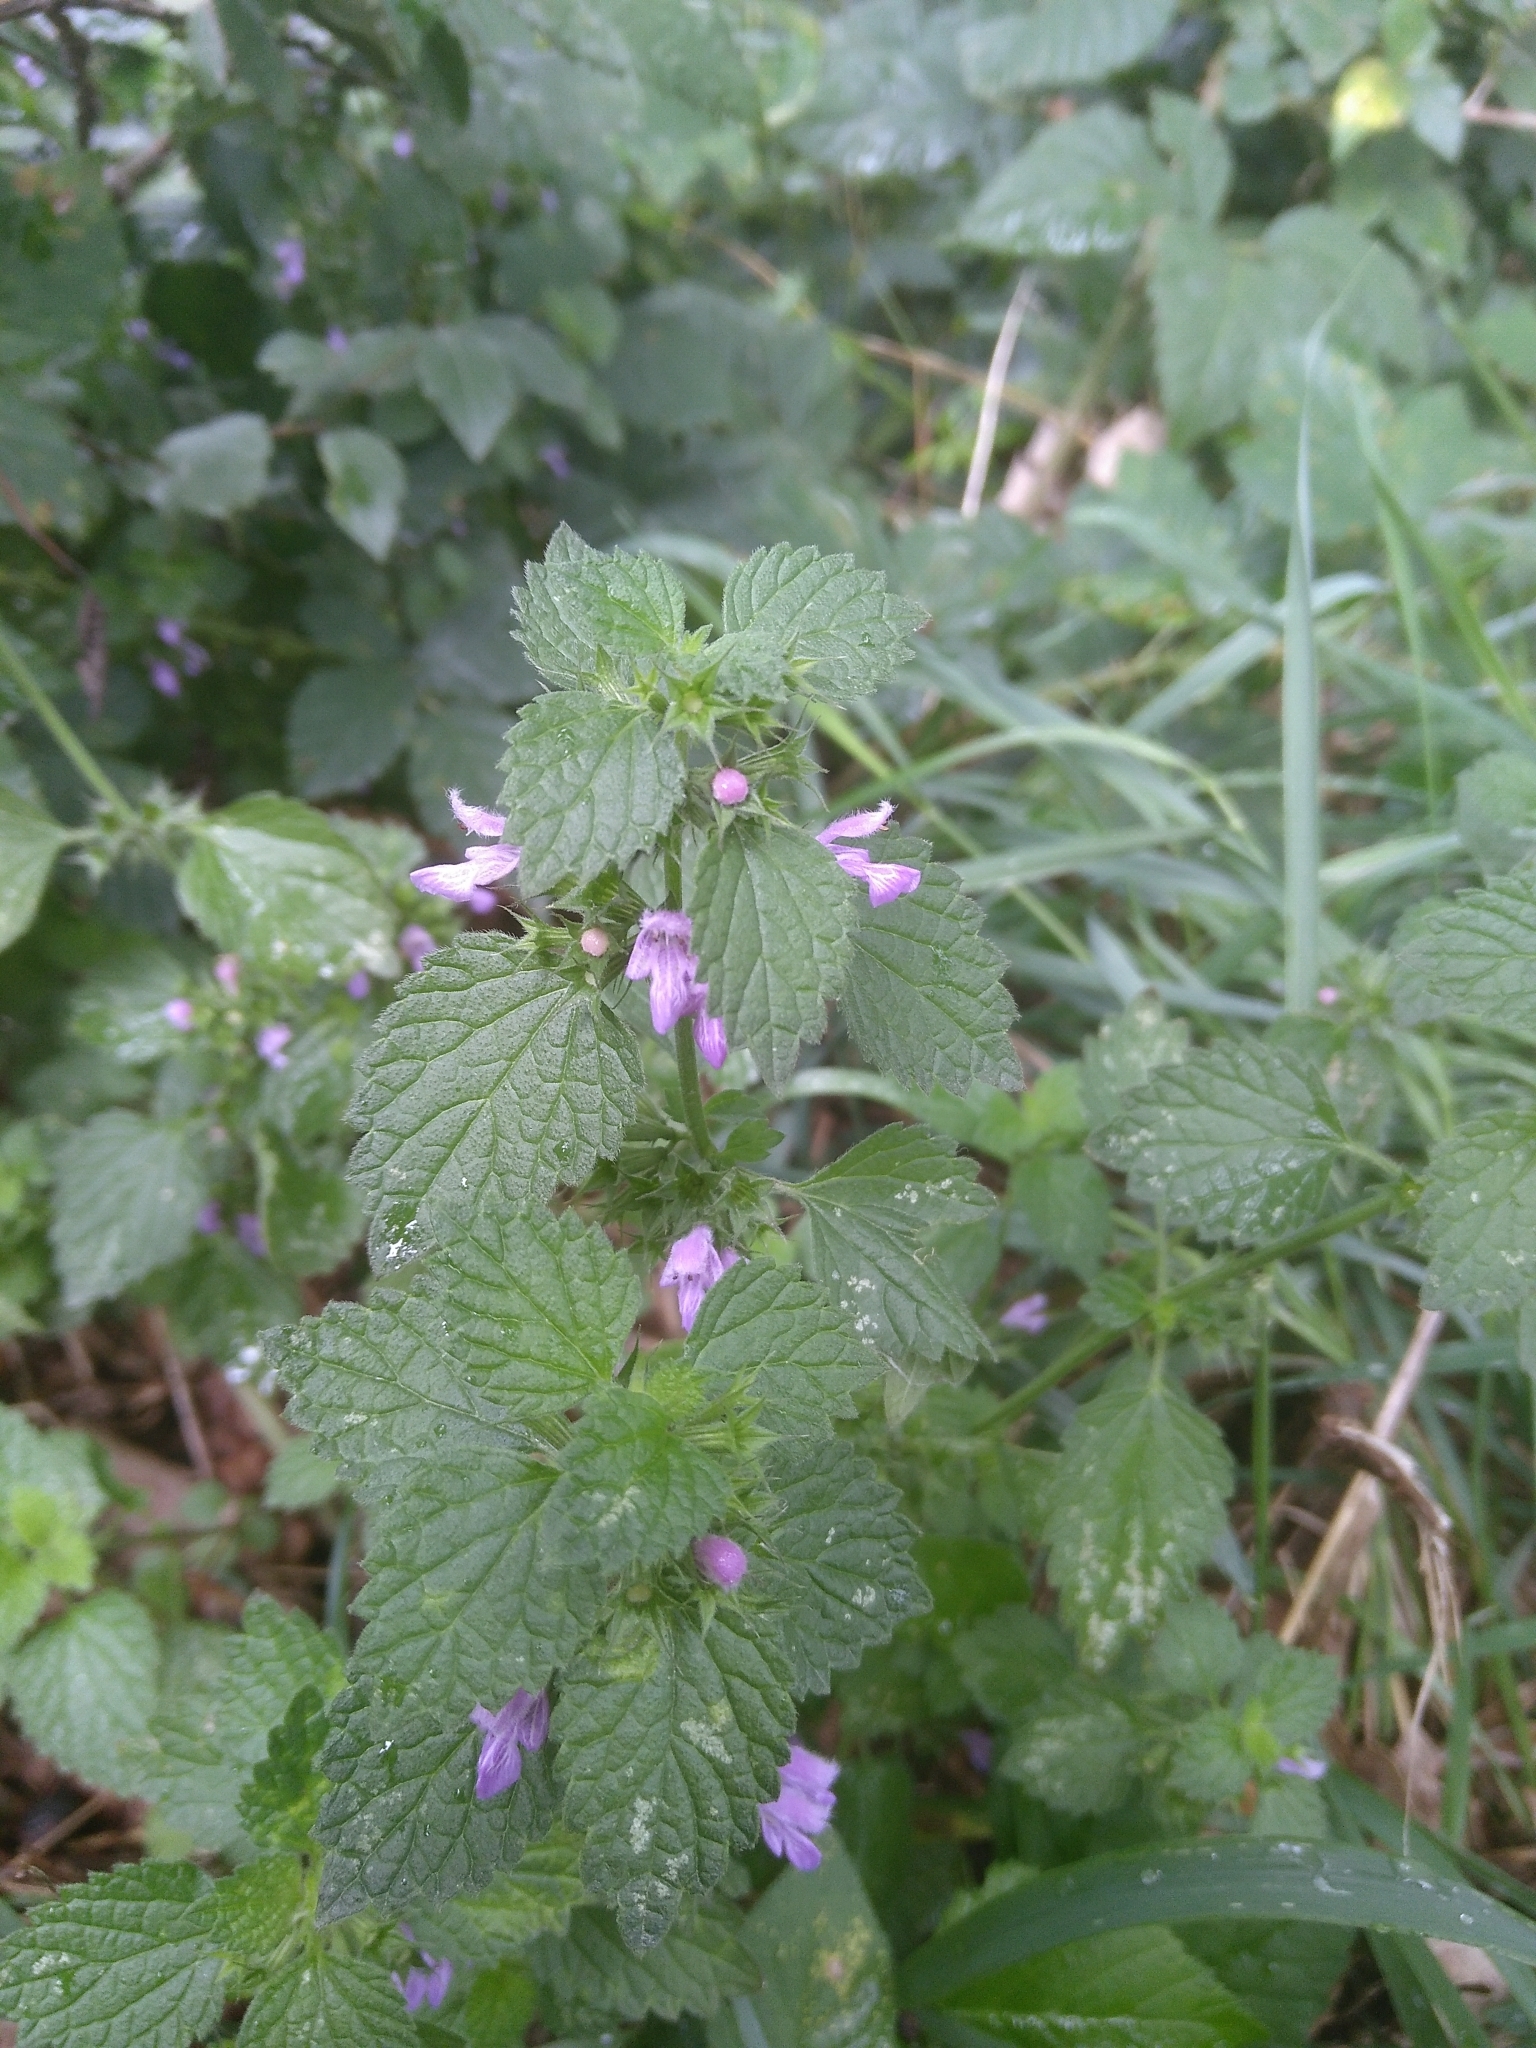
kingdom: Plantae
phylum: Tracheophyta
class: Magnoliopsida
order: Lamiales
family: Lamiaceae
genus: Ballota
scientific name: Ballota nigra
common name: Black horehound
